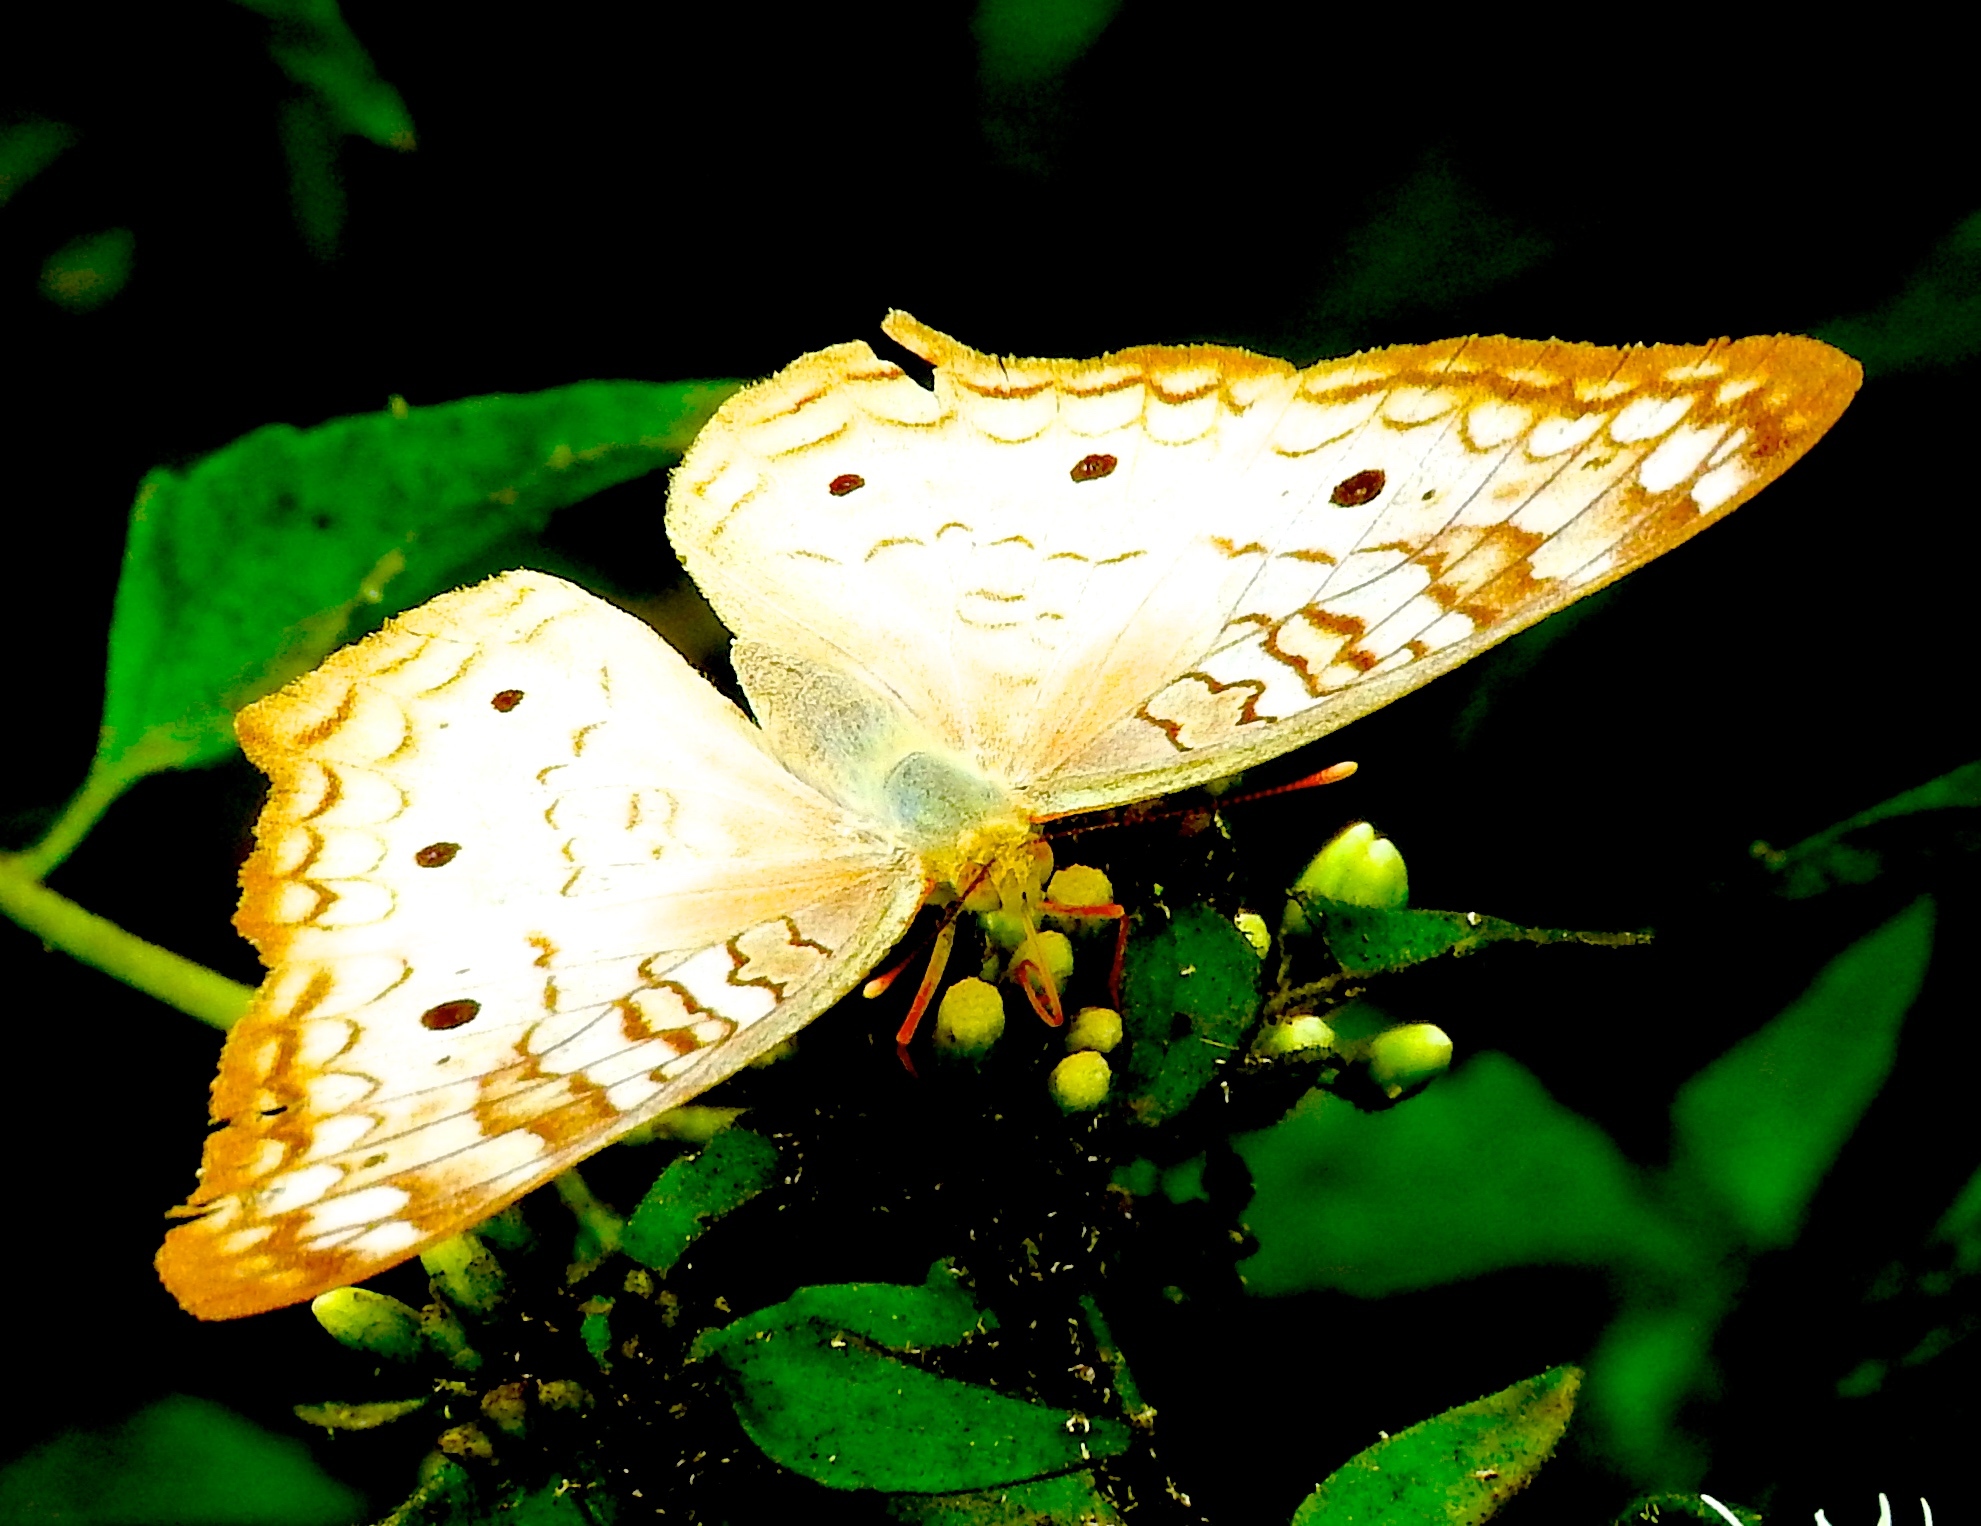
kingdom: Animalia
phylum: Arthropoda
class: Insecta
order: Lepidoptera
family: Nymphalidae
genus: Anartia
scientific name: Anartia jatrophae
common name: White peacock
